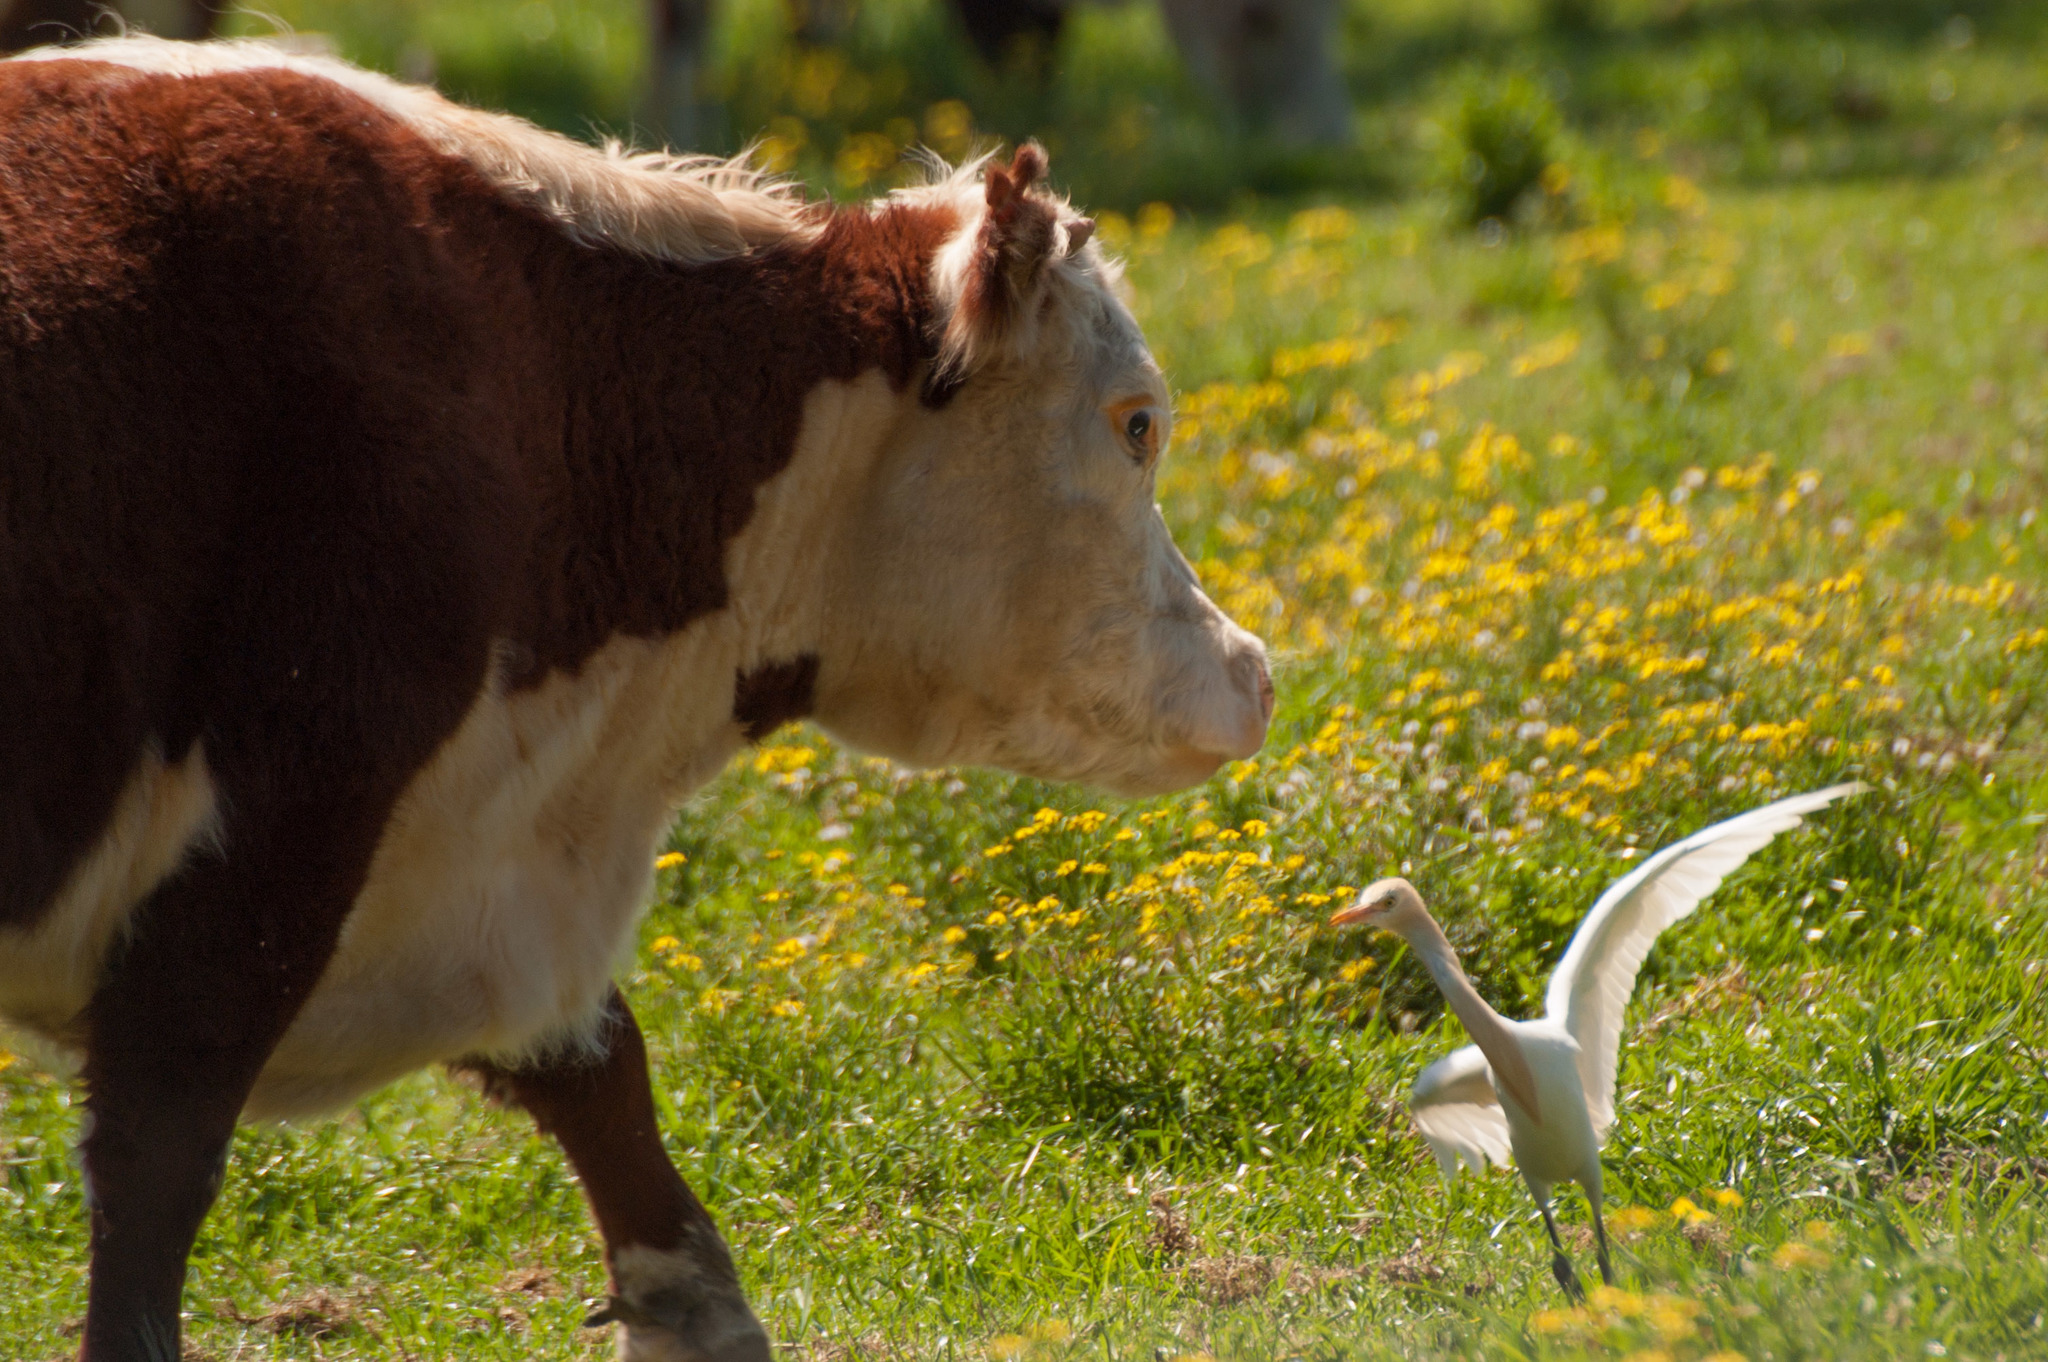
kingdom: Animalia
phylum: Chordata
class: Aves
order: Pelecaniformes
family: Ardeidae
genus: Bubulcus
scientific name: Bubulcus coromandus
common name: Eastern cattle egret
